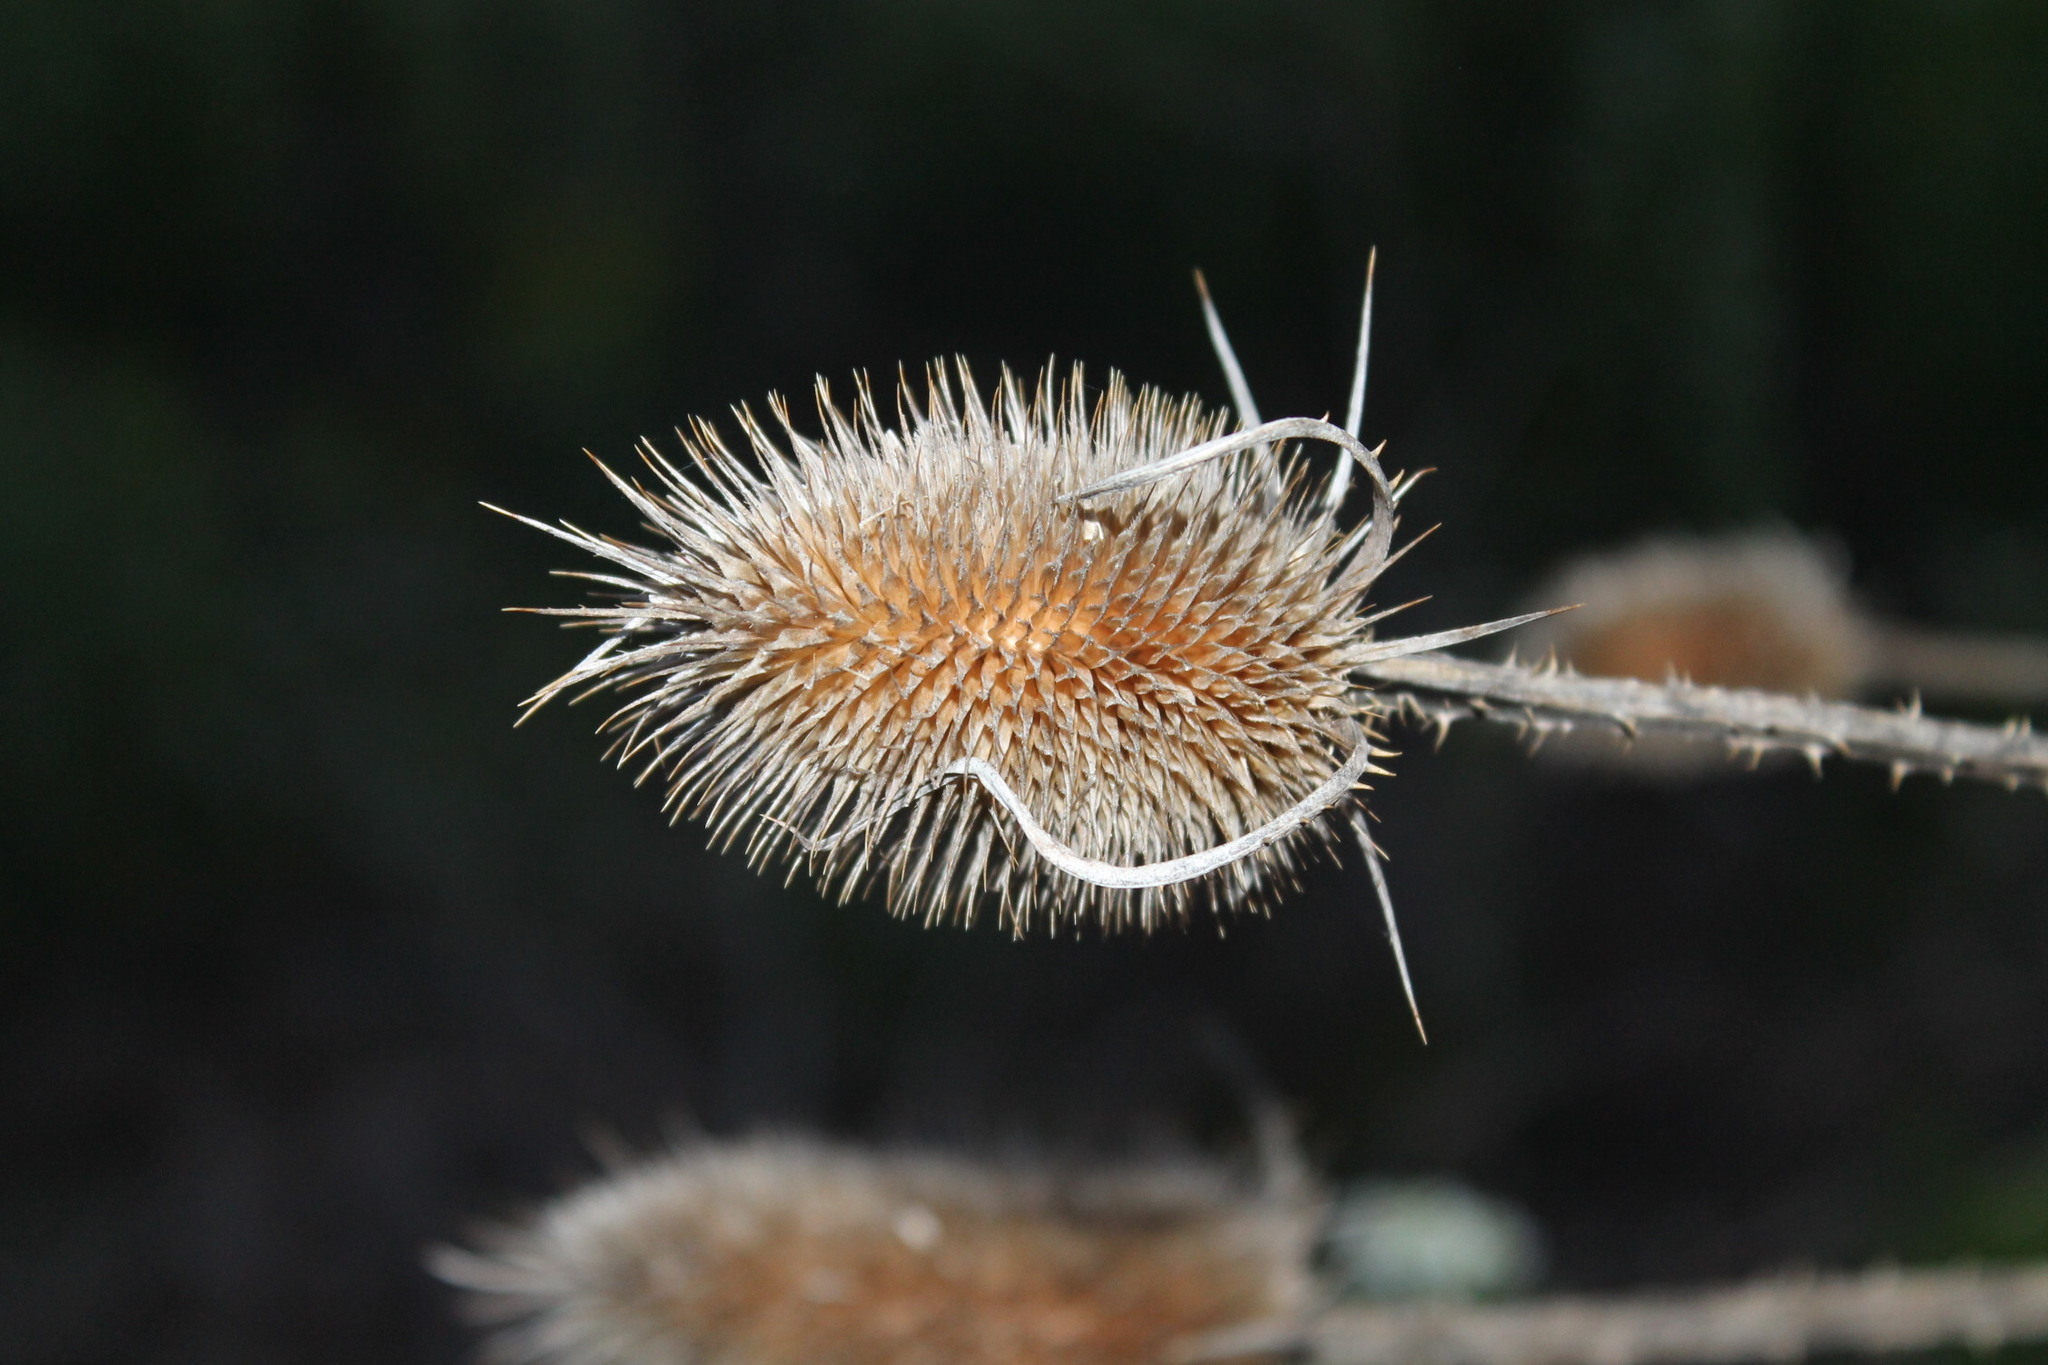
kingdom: Plantae
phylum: Tracheophyta
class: Magnoliopsida
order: Dipsacales
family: Caprifoliaceae
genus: Dipsacus
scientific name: Dipsacus fullonum
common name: Teasel
